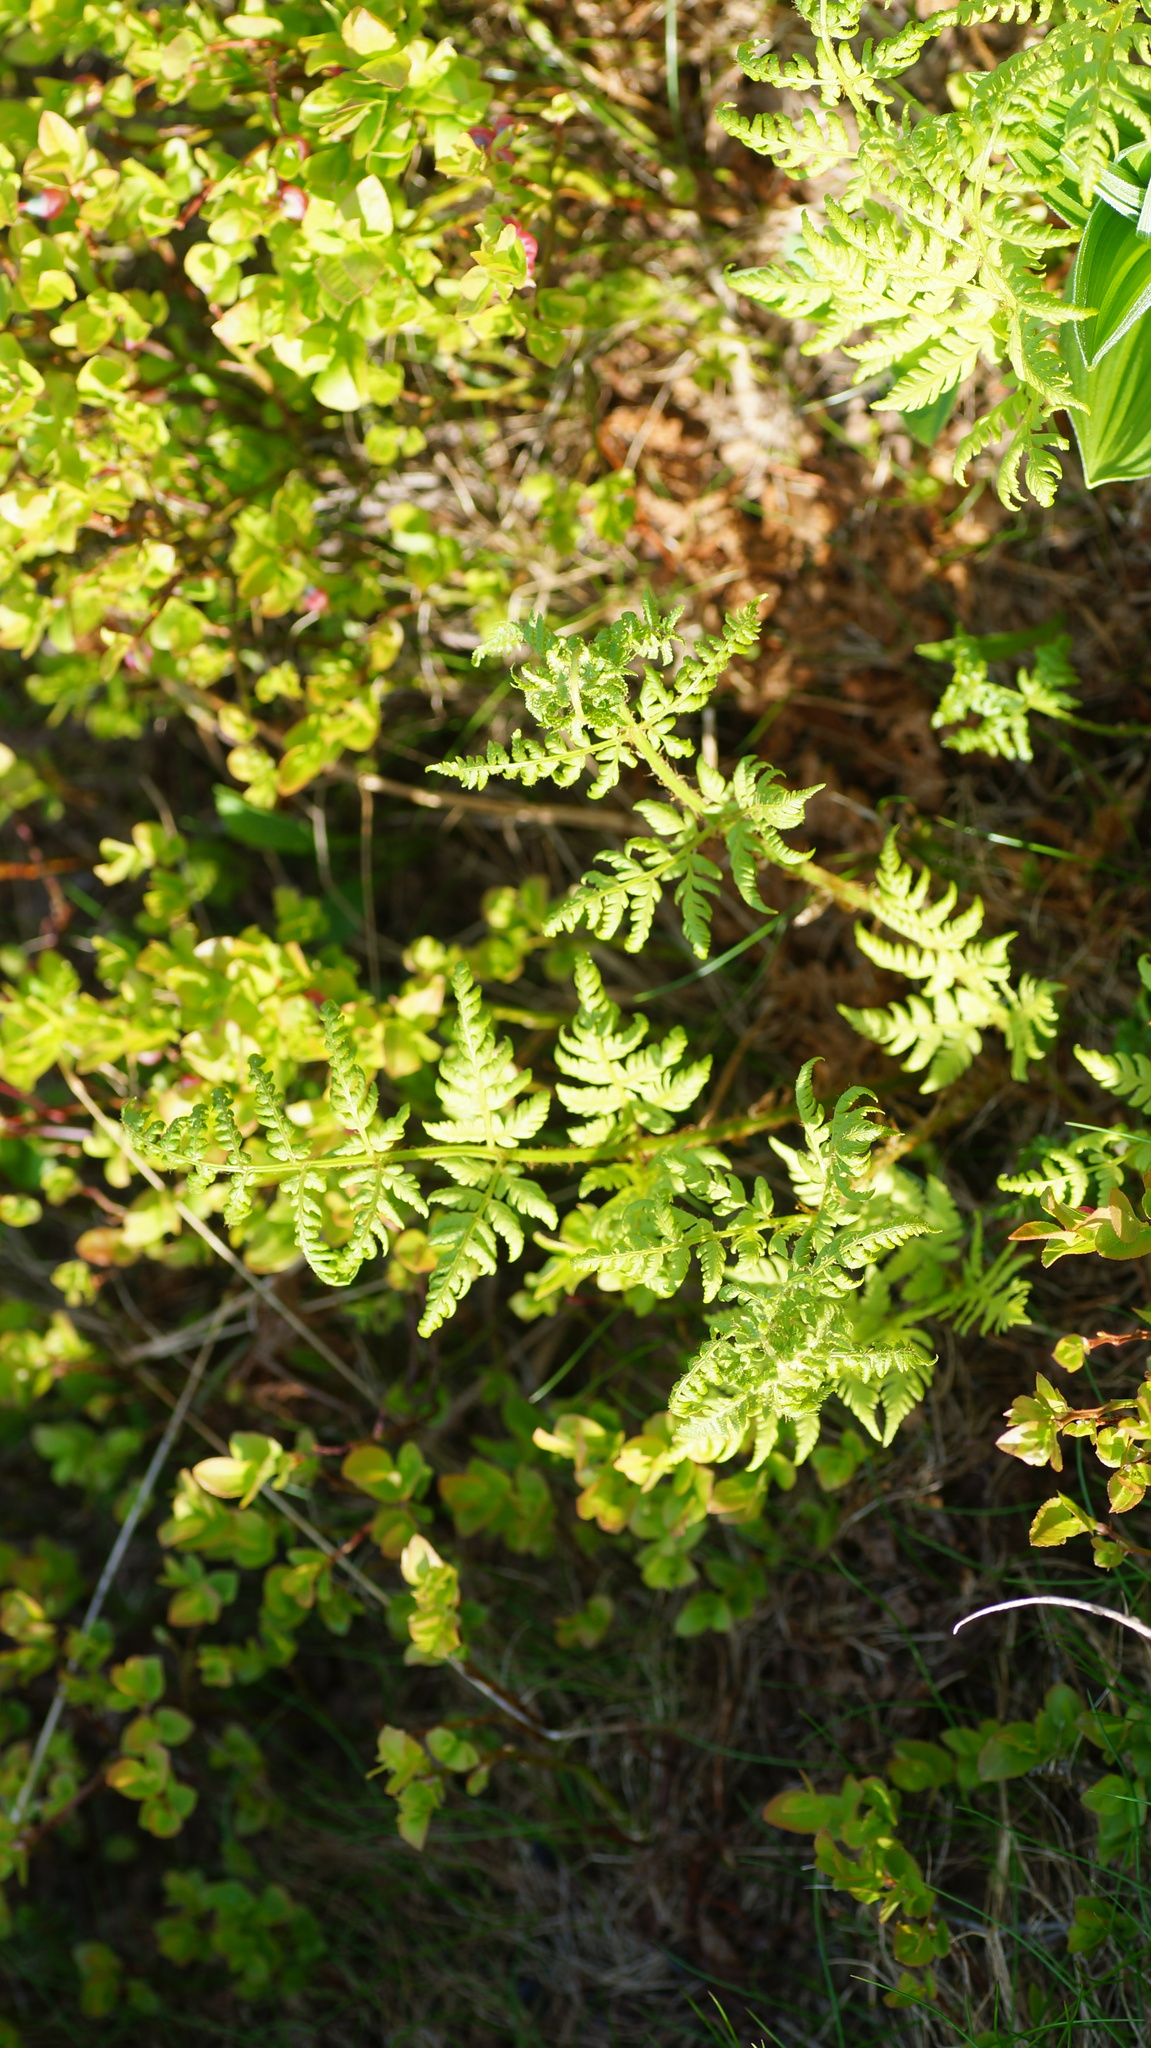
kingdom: Plantae
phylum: Tracheophyta
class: Polypodiopsida
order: Polypodiales
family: Dryopteridaceae
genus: Dryopteris
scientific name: Dryopteris expansa
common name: Northern buckler fern
